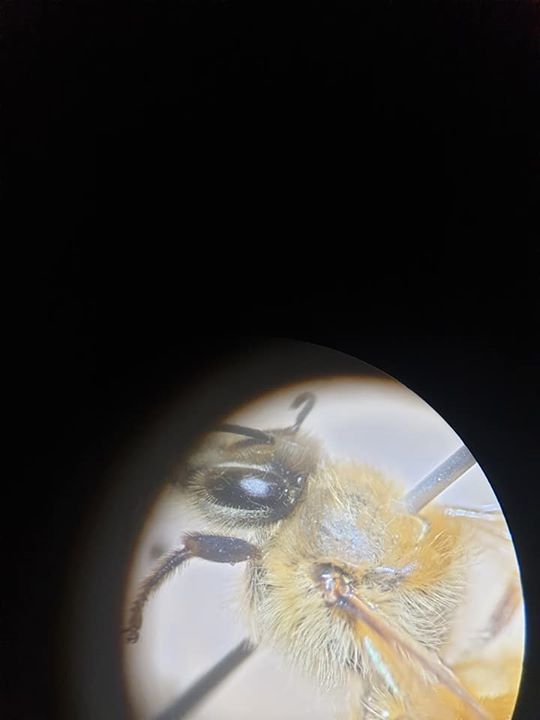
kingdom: Animalia
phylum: Arthropoda
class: Insecta
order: Hymenoptera
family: Apidae
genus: Apis
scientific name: Apis mellifera
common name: Honey bee
